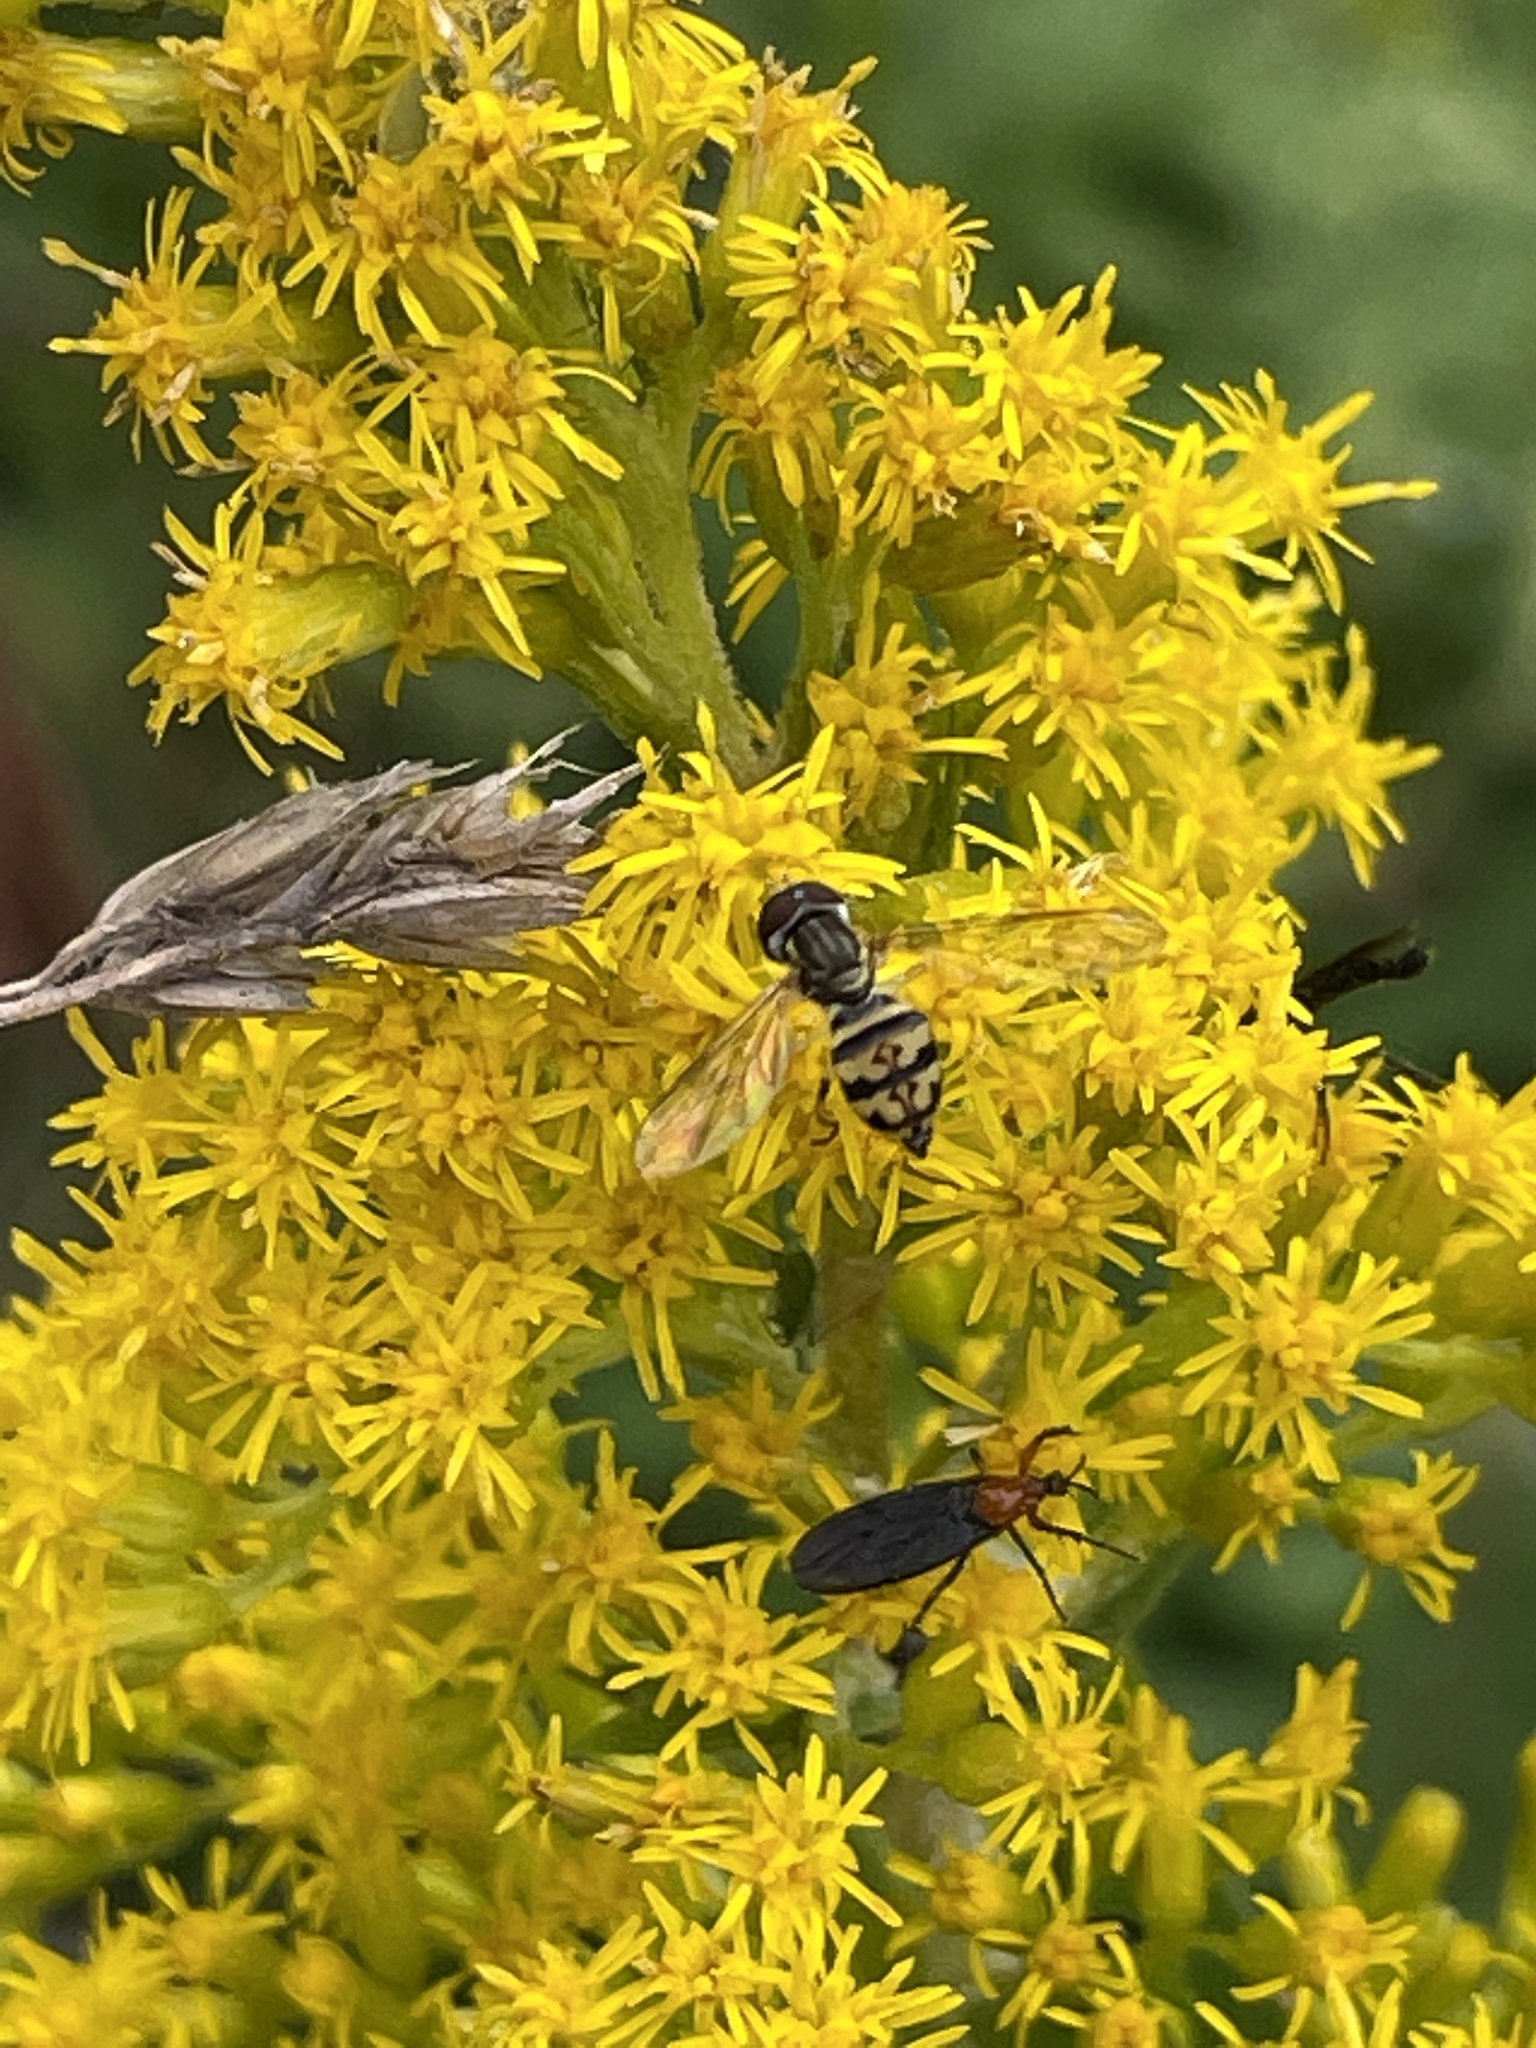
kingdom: Animalia
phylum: Arthropoda
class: Insecta
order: Diptera
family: Syrphidae
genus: Toxomerus
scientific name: Toxomerus geminatus
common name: Eastern calligrapher
